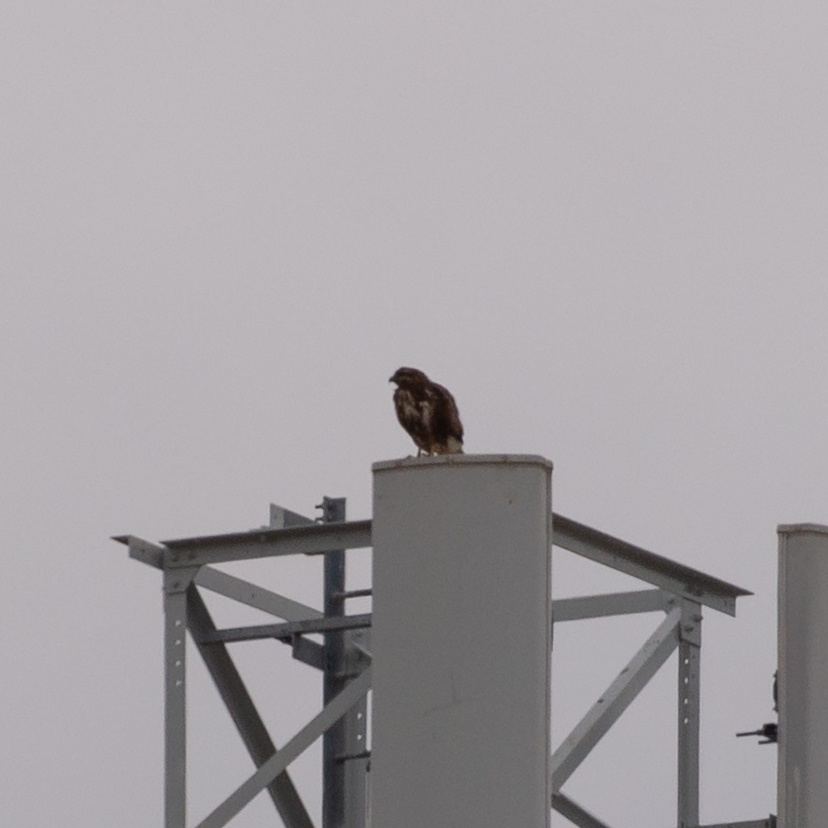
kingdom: Animalia
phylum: Chordata
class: Aves
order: Accipitriformes
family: Accipitridae
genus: Buteo
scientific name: Buteo buteo
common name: Common buzzard
